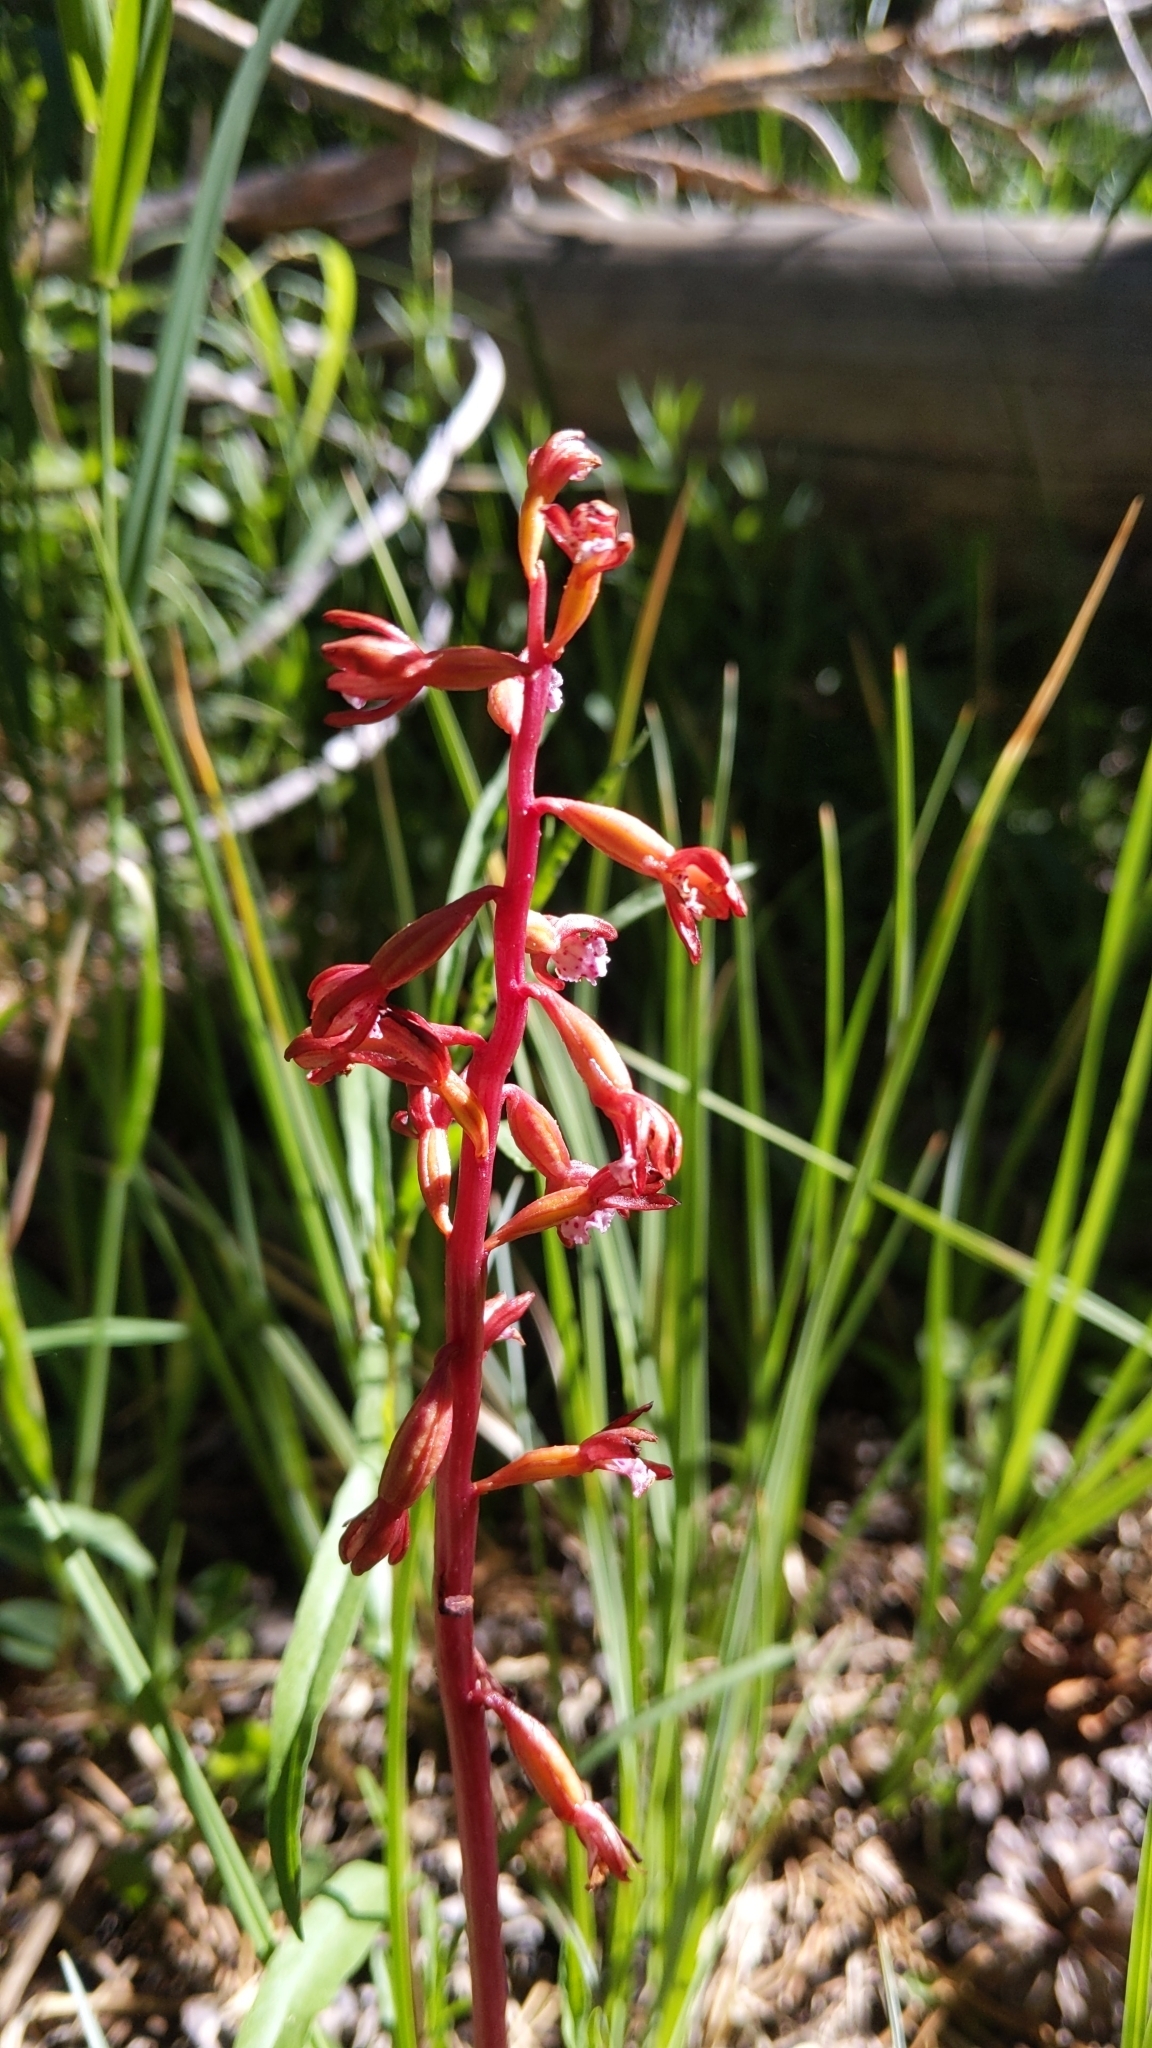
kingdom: Plantae
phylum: Tracheophyta
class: Liliopsida
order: Asparagales
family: Orchidaceae
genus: Corallorhiza
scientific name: Corallorhiza maculata
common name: Spotted coralroot
